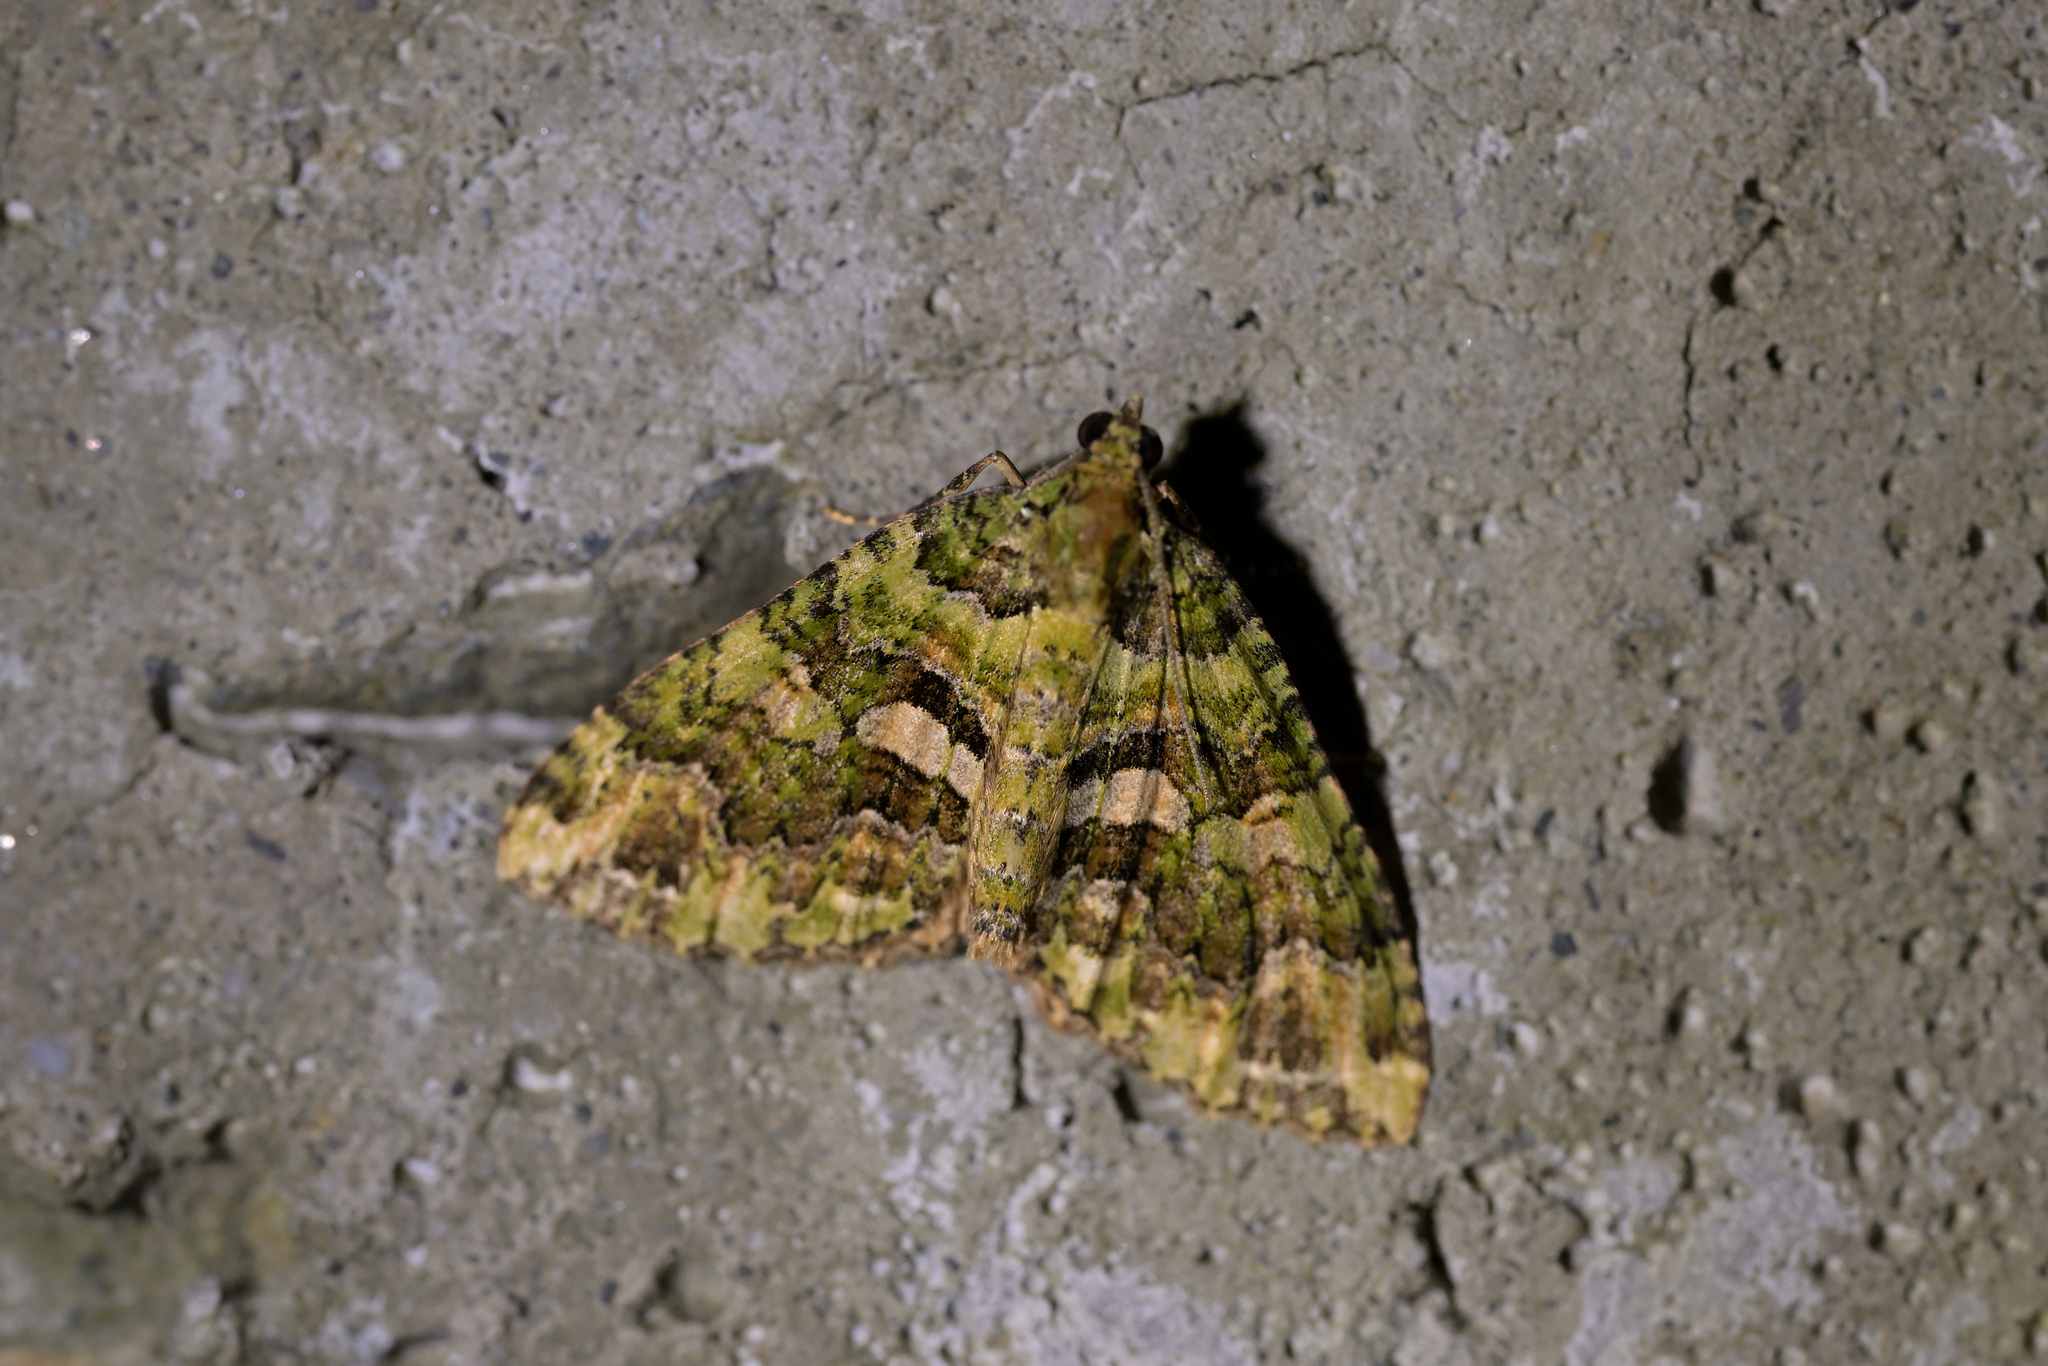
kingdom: Animalia
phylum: Arthropoda
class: Insecta
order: Lepidoptera
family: Geometridae
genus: Austrocidaria
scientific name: Austrocidaria similata
